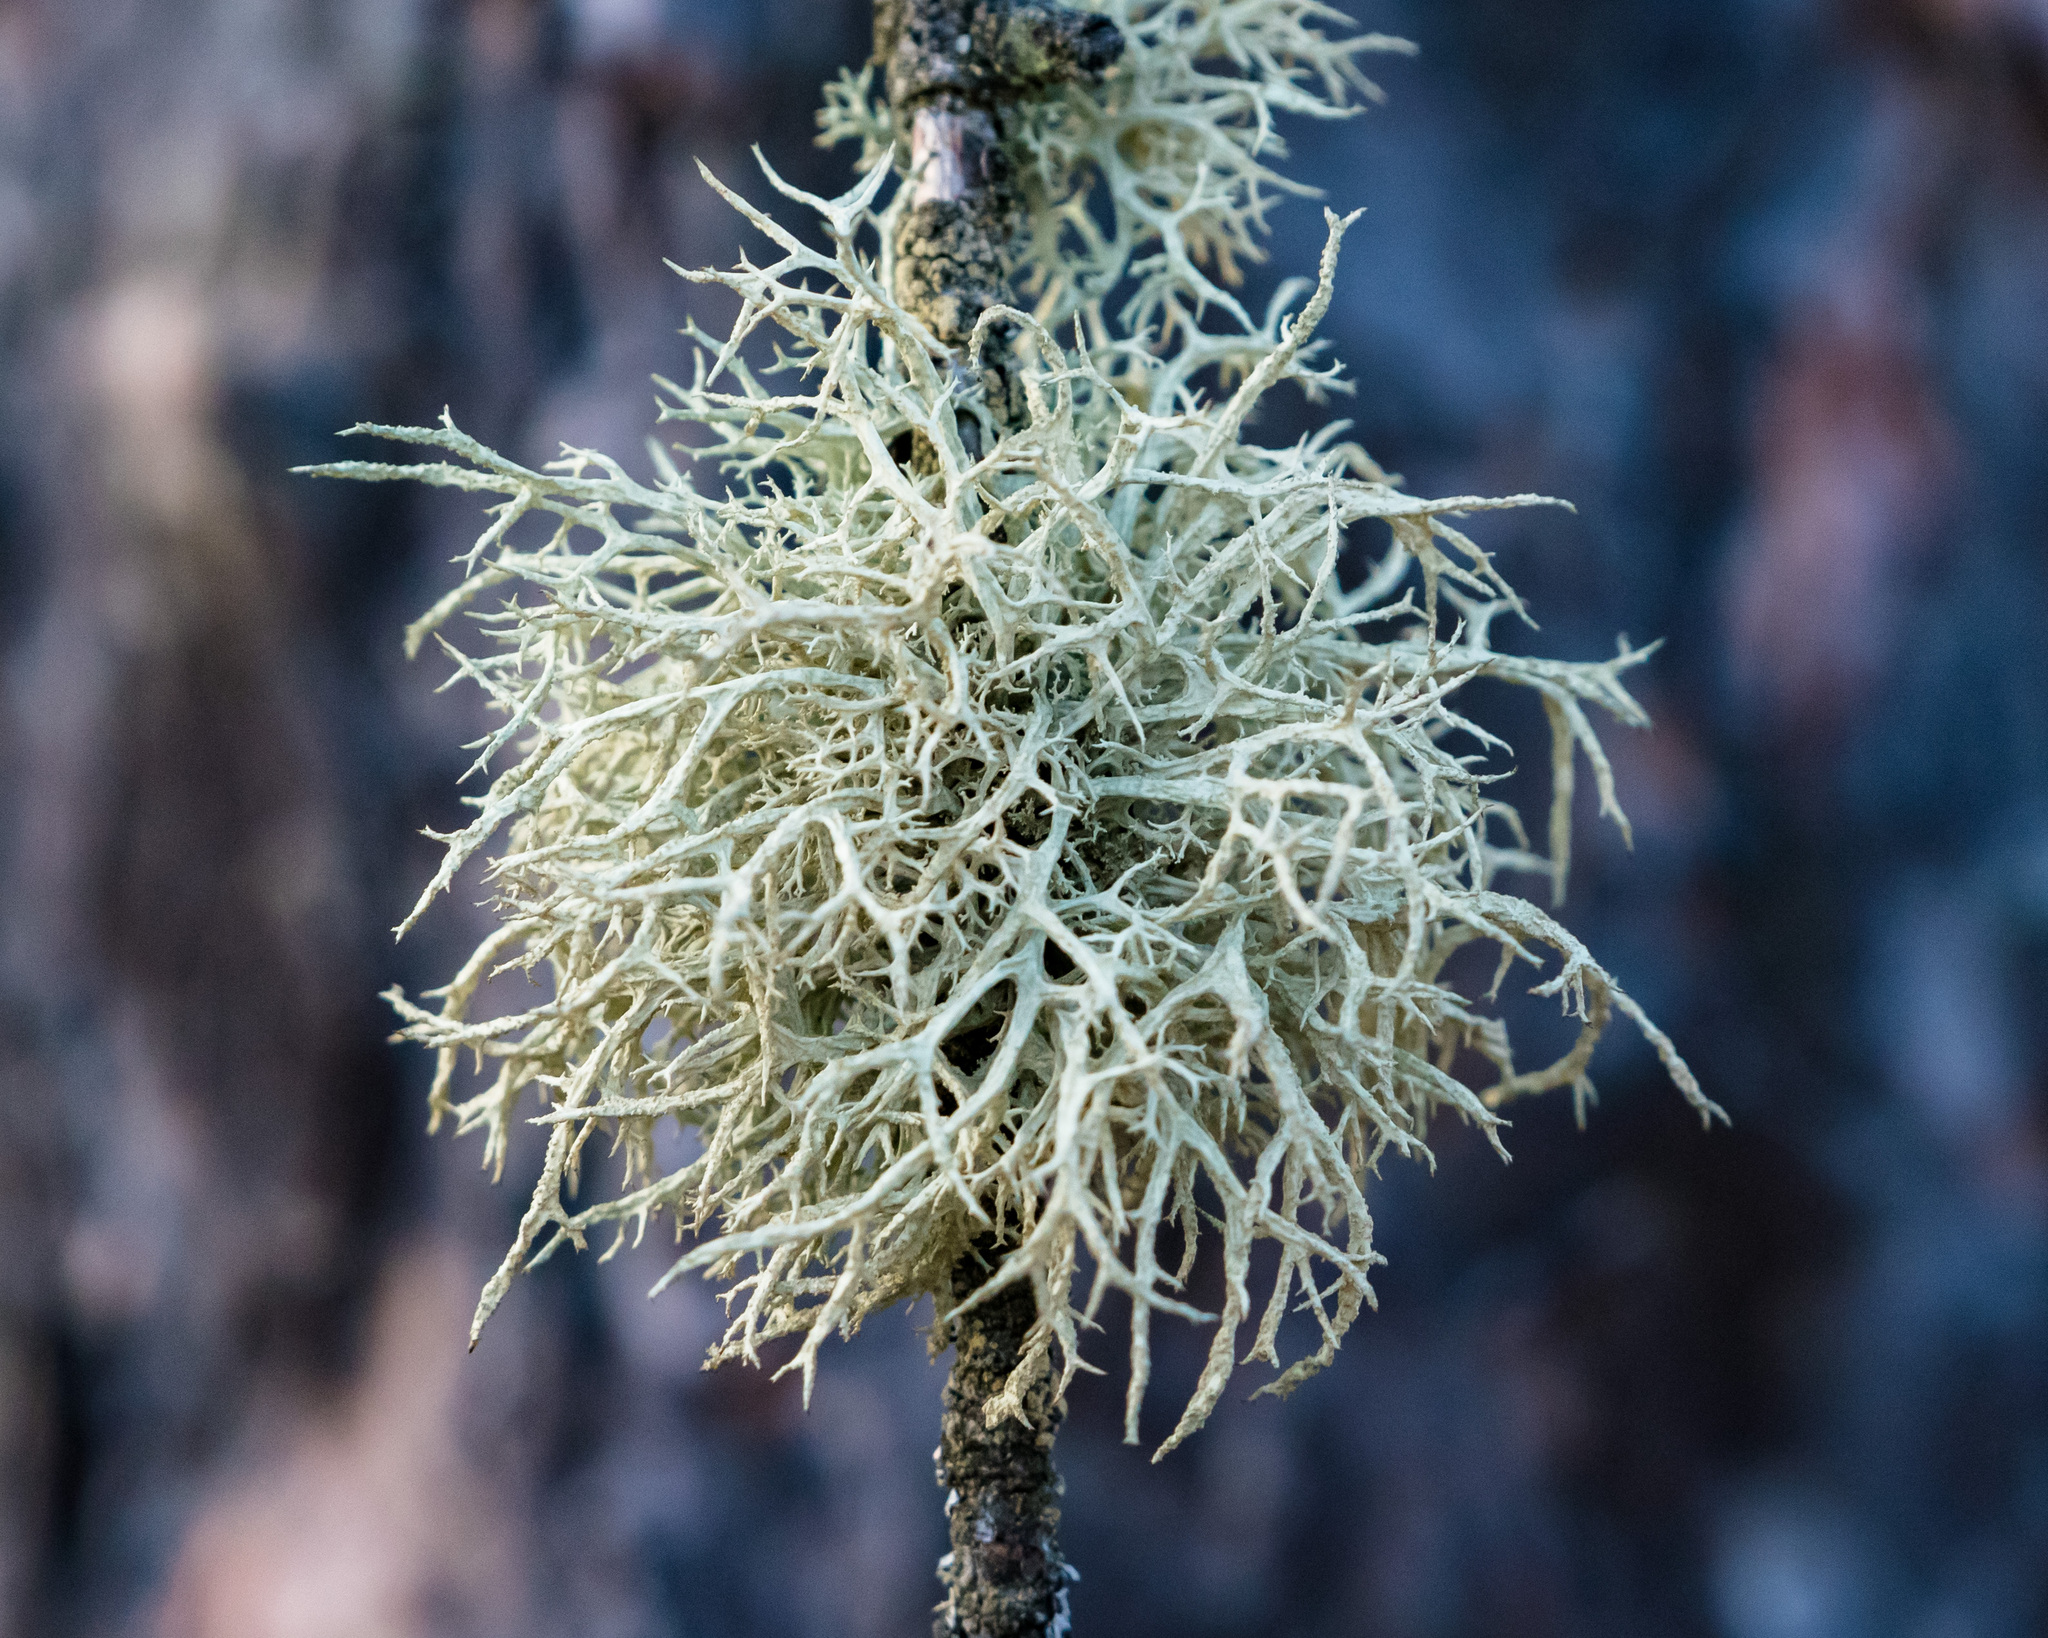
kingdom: Fungi
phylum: Ascomycota
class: Lecanoromycetes
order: Lecanorales
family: Parmeliaceae
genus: Evernia
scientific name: Evernia mesomorpha
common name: Boreal oak moss lichen
